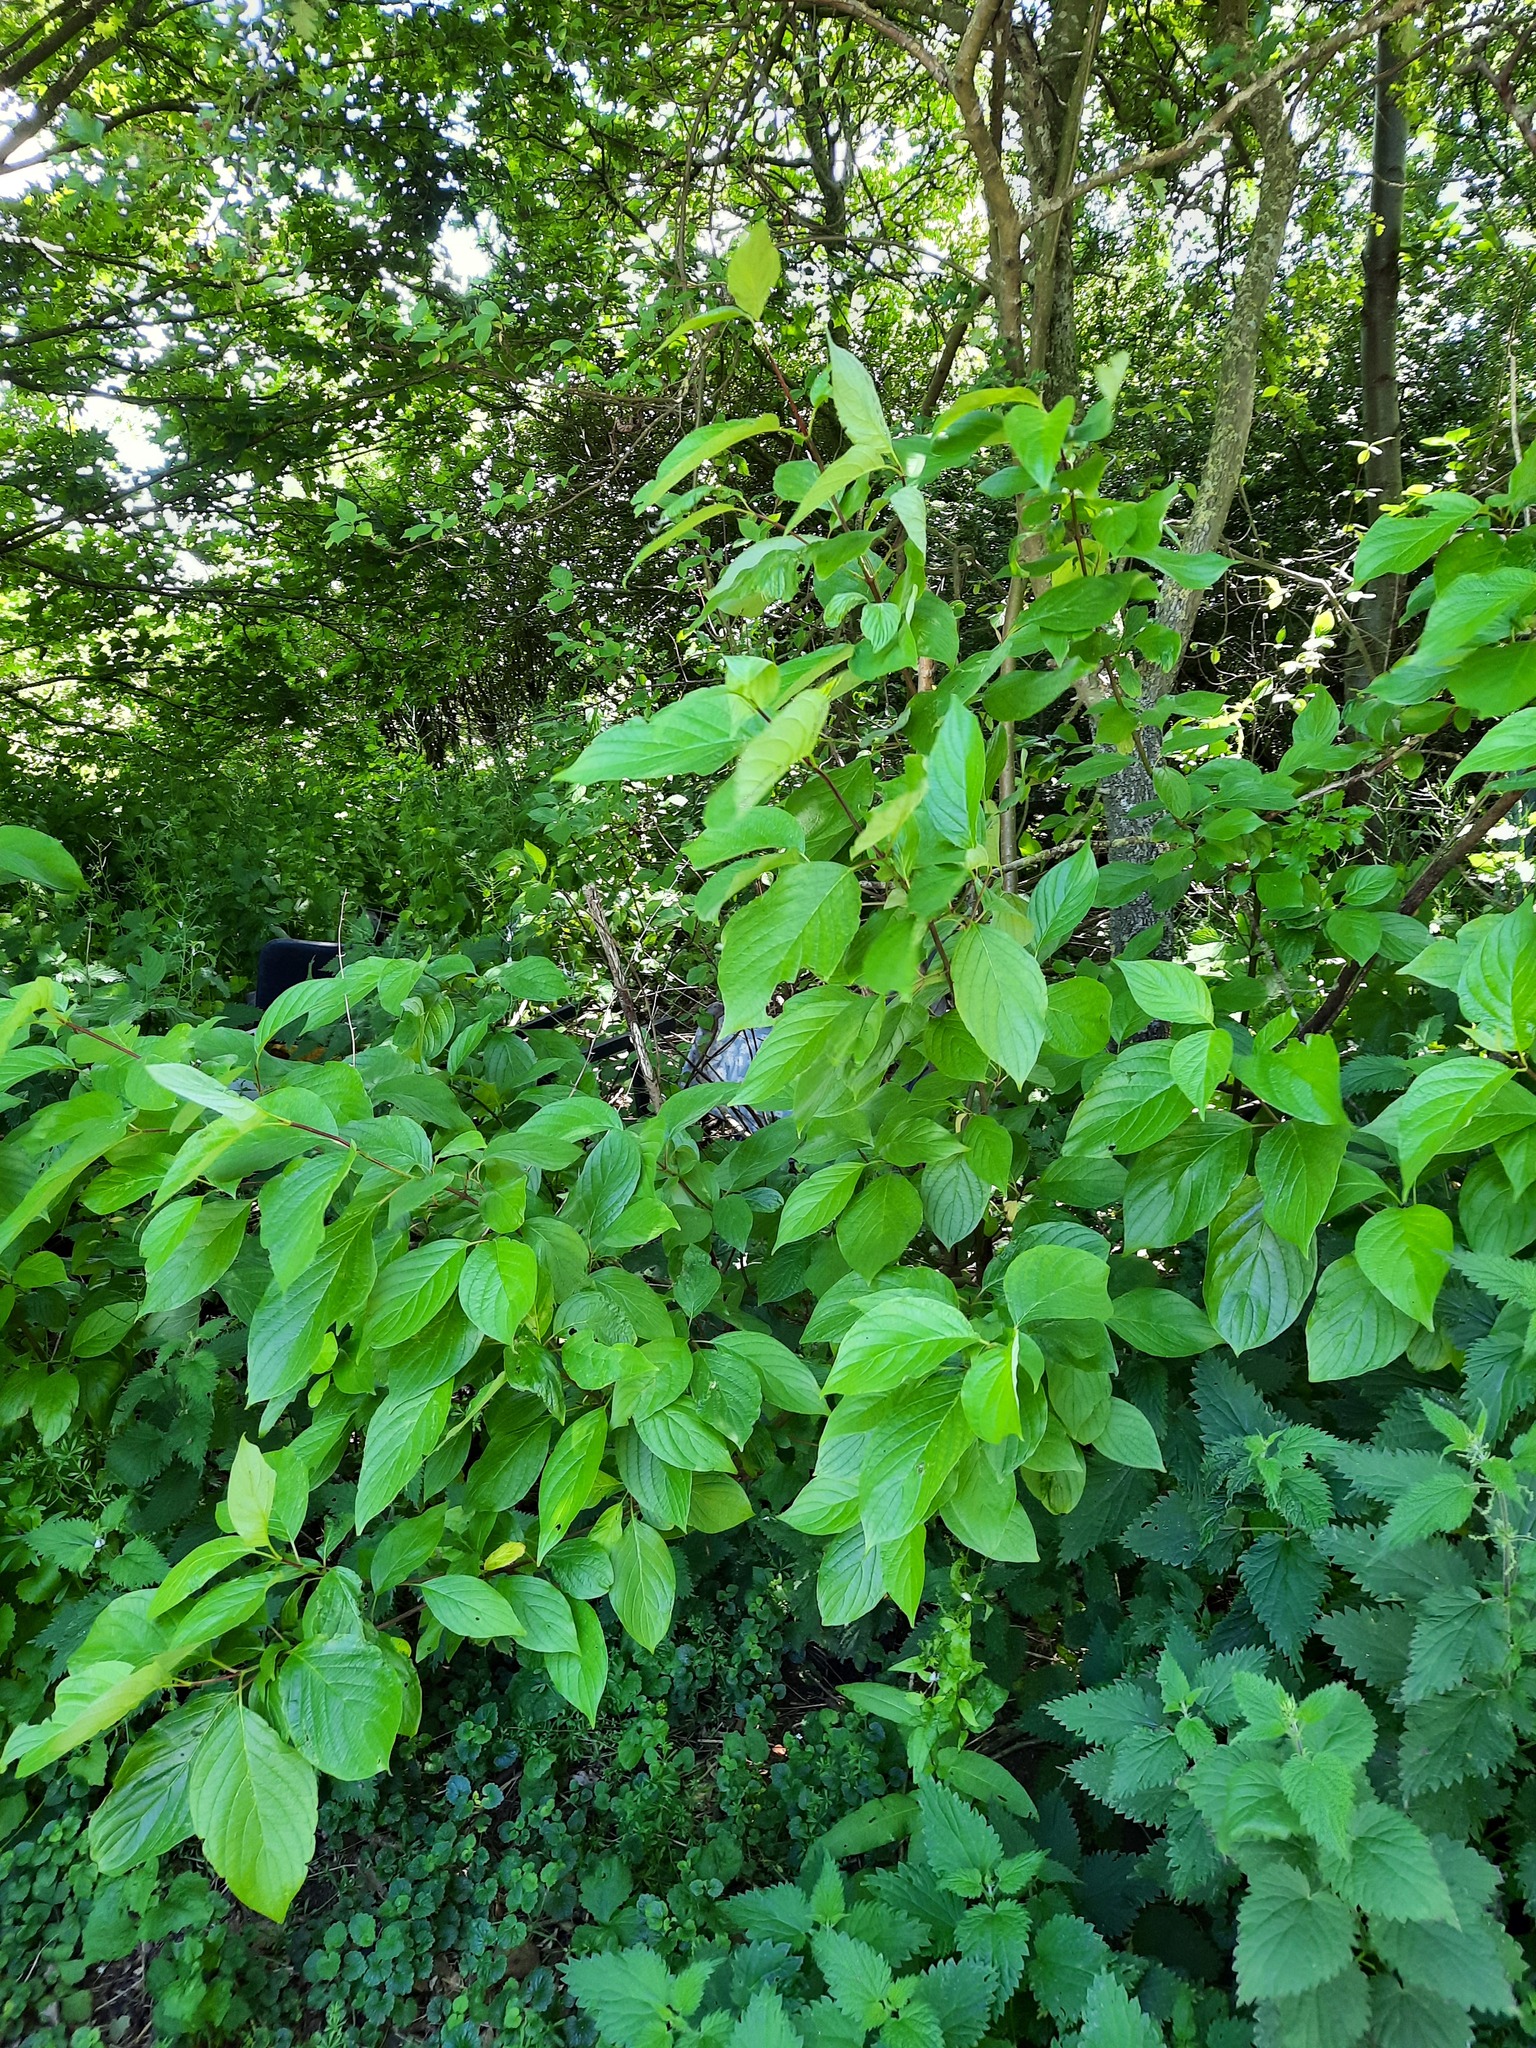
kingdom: Plantae
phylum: Tracheophyta
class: Magnoliopsida
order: Cornales
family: Cornaceae
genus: Cornus
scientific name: Cornus sanguinea
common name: Dogwood
